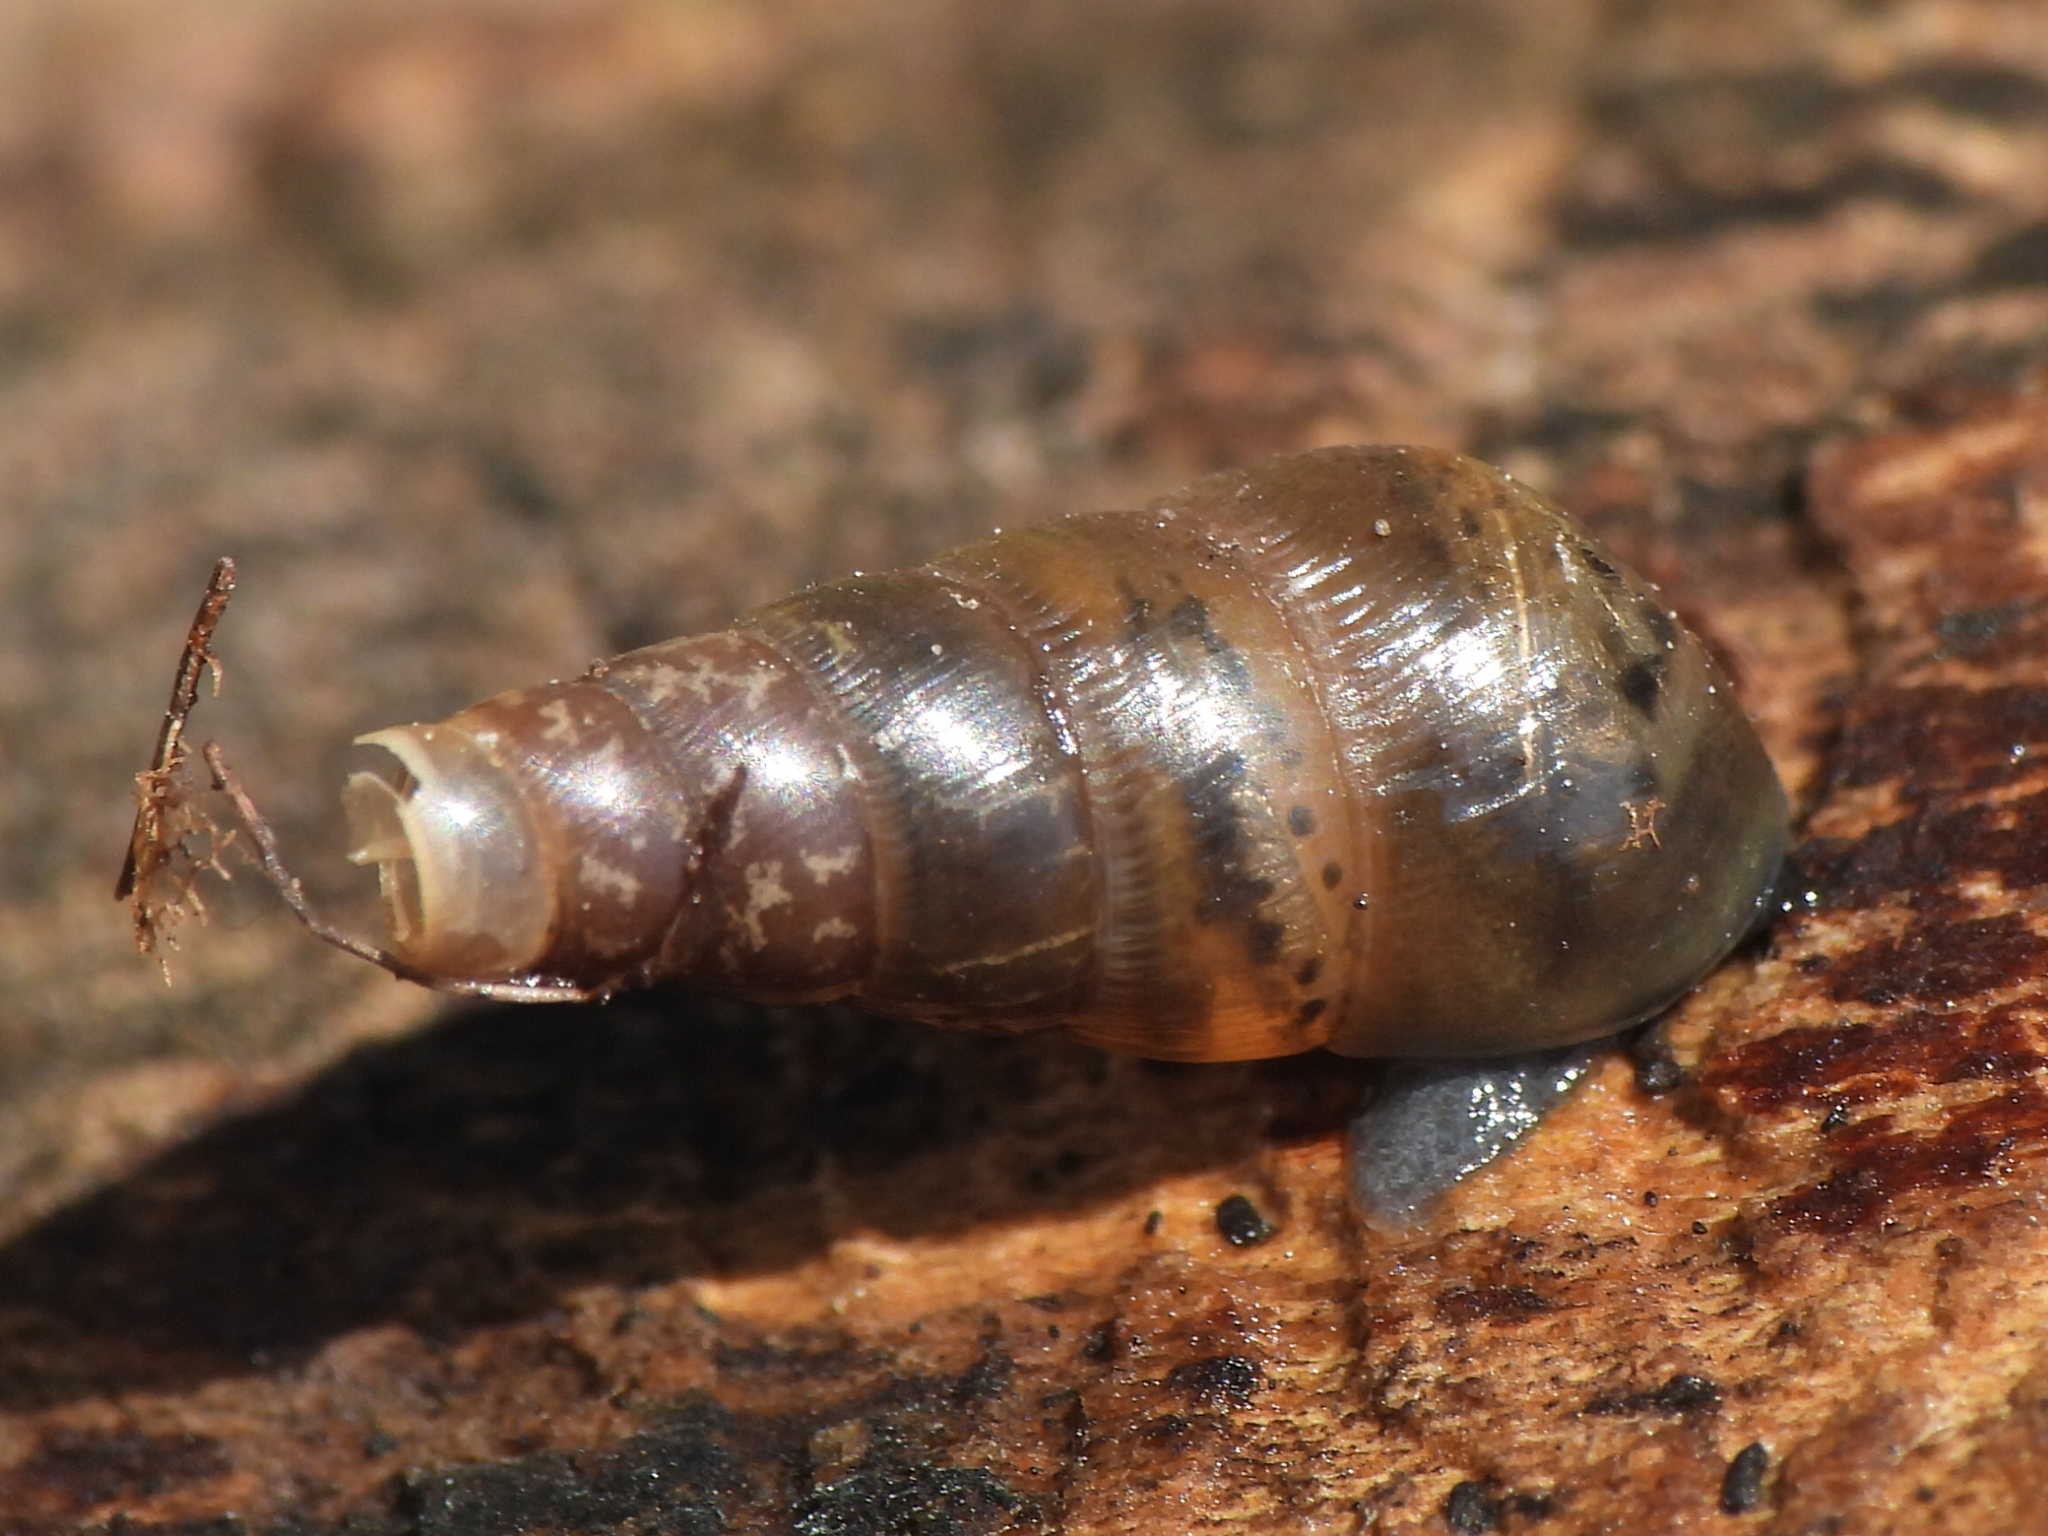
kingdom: Animalia
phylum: Mollusca
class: Gastropoda
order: Stylommatophora
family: Achatinidae
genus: Rumina
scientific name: Rumina decollata
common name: Decollate snail
